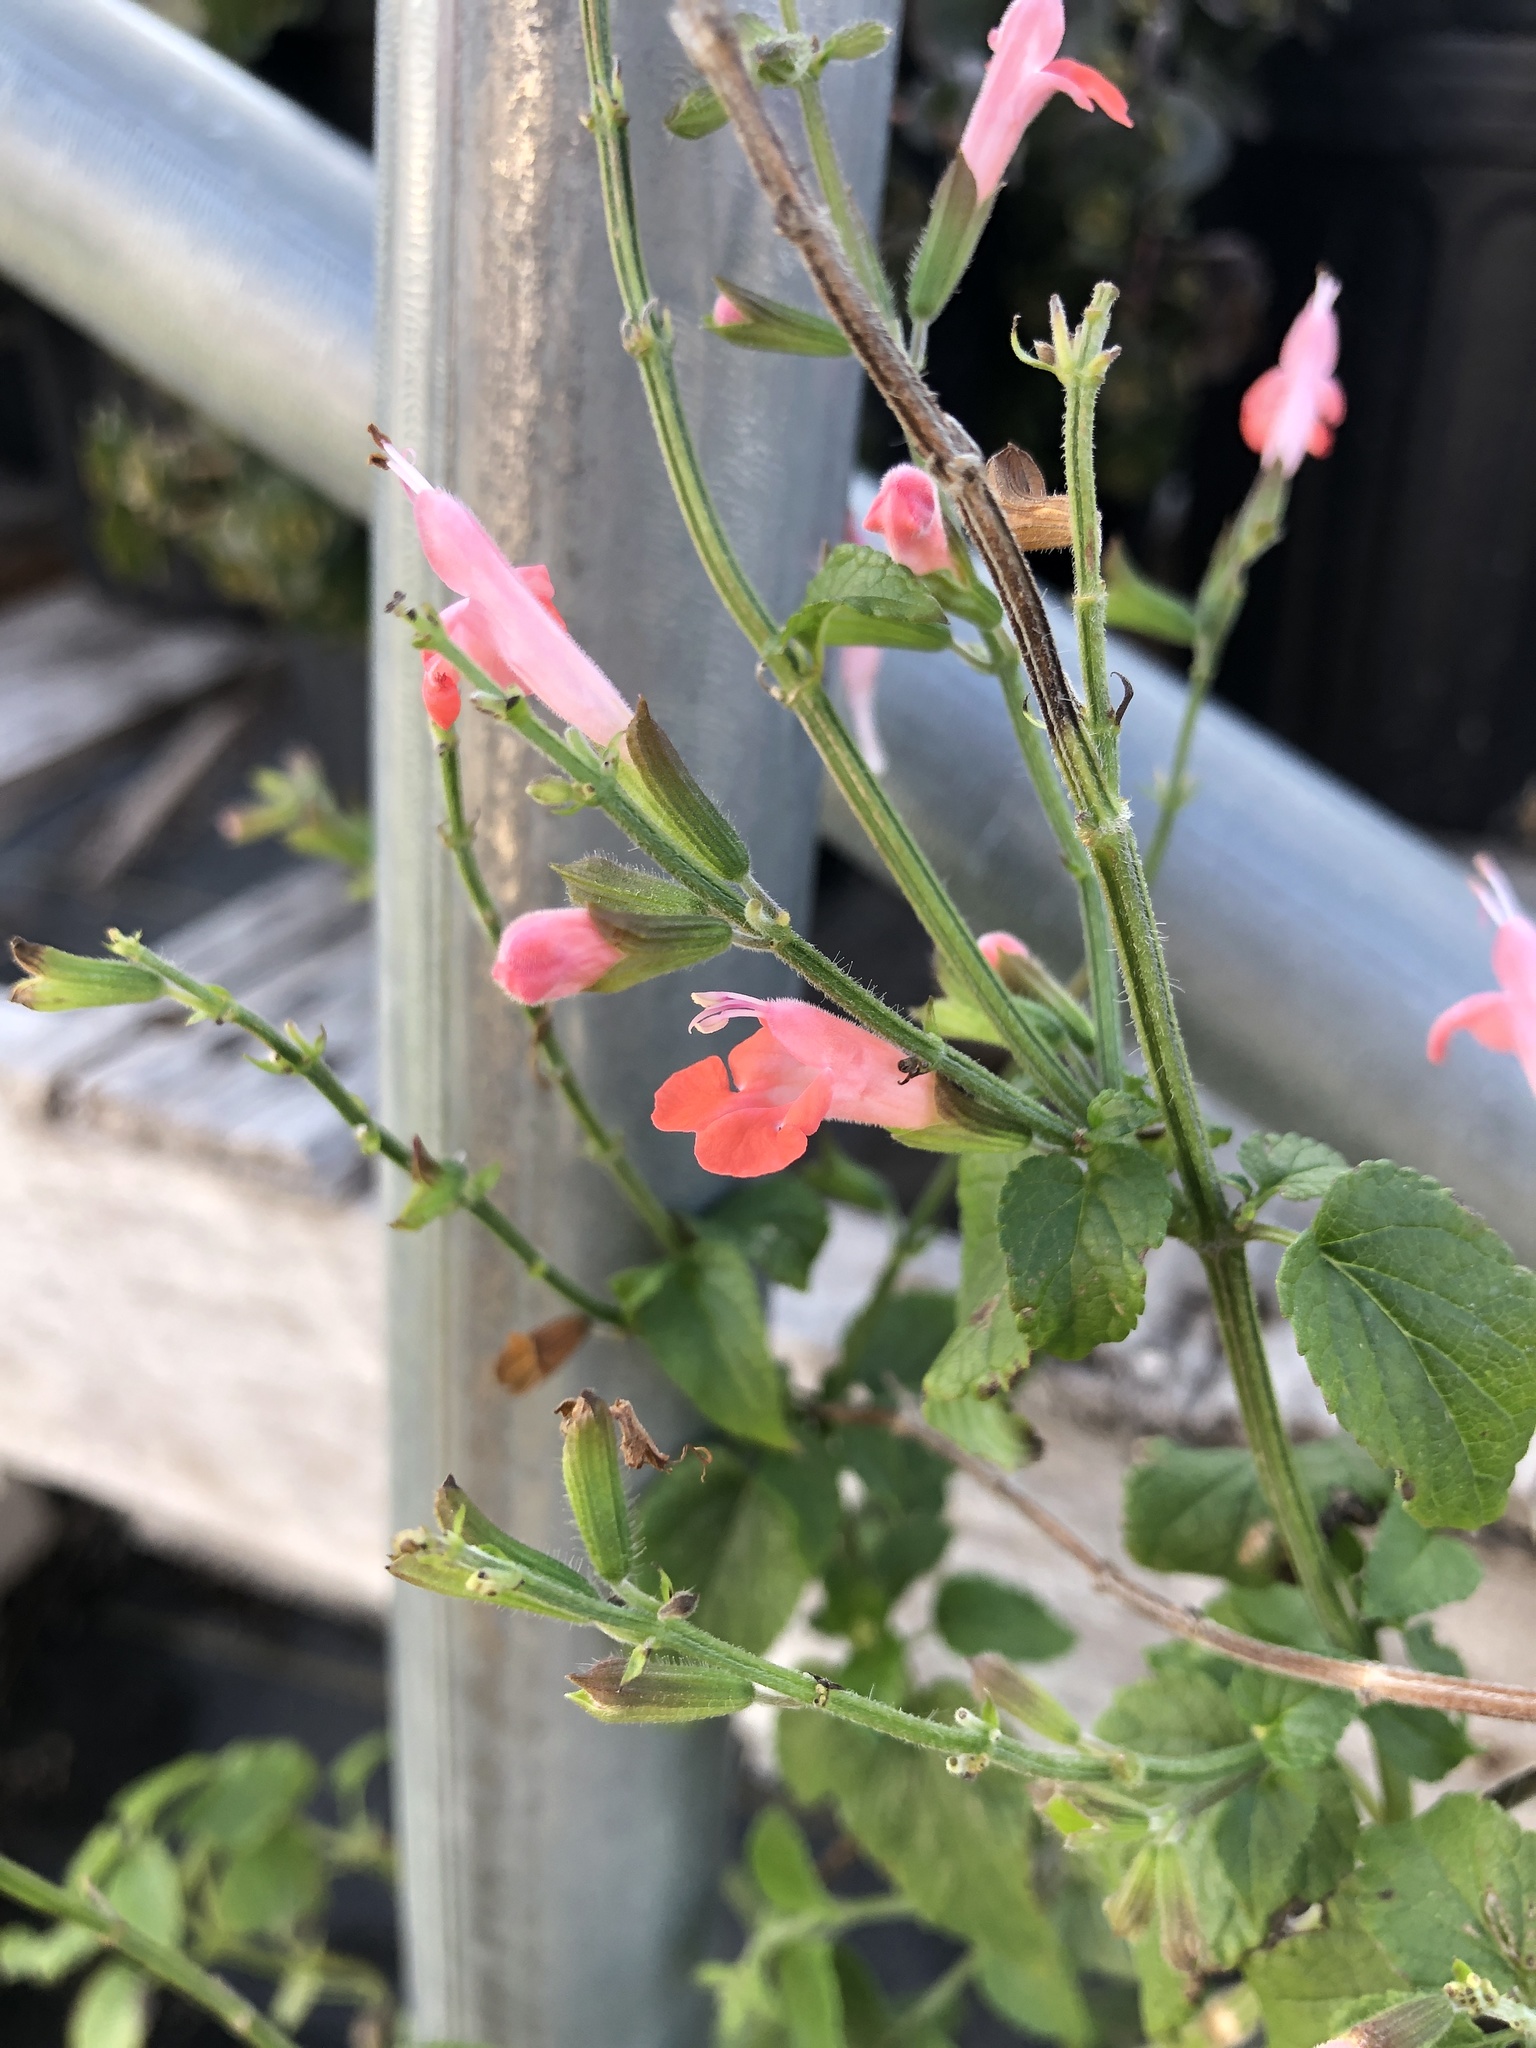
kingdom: Plantae
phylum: Tracheophyta
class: Magnoliopsida
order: Lamiales
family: Lamiaceae
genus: Salvia
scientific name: Salvia coccinea
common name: Blood sage
